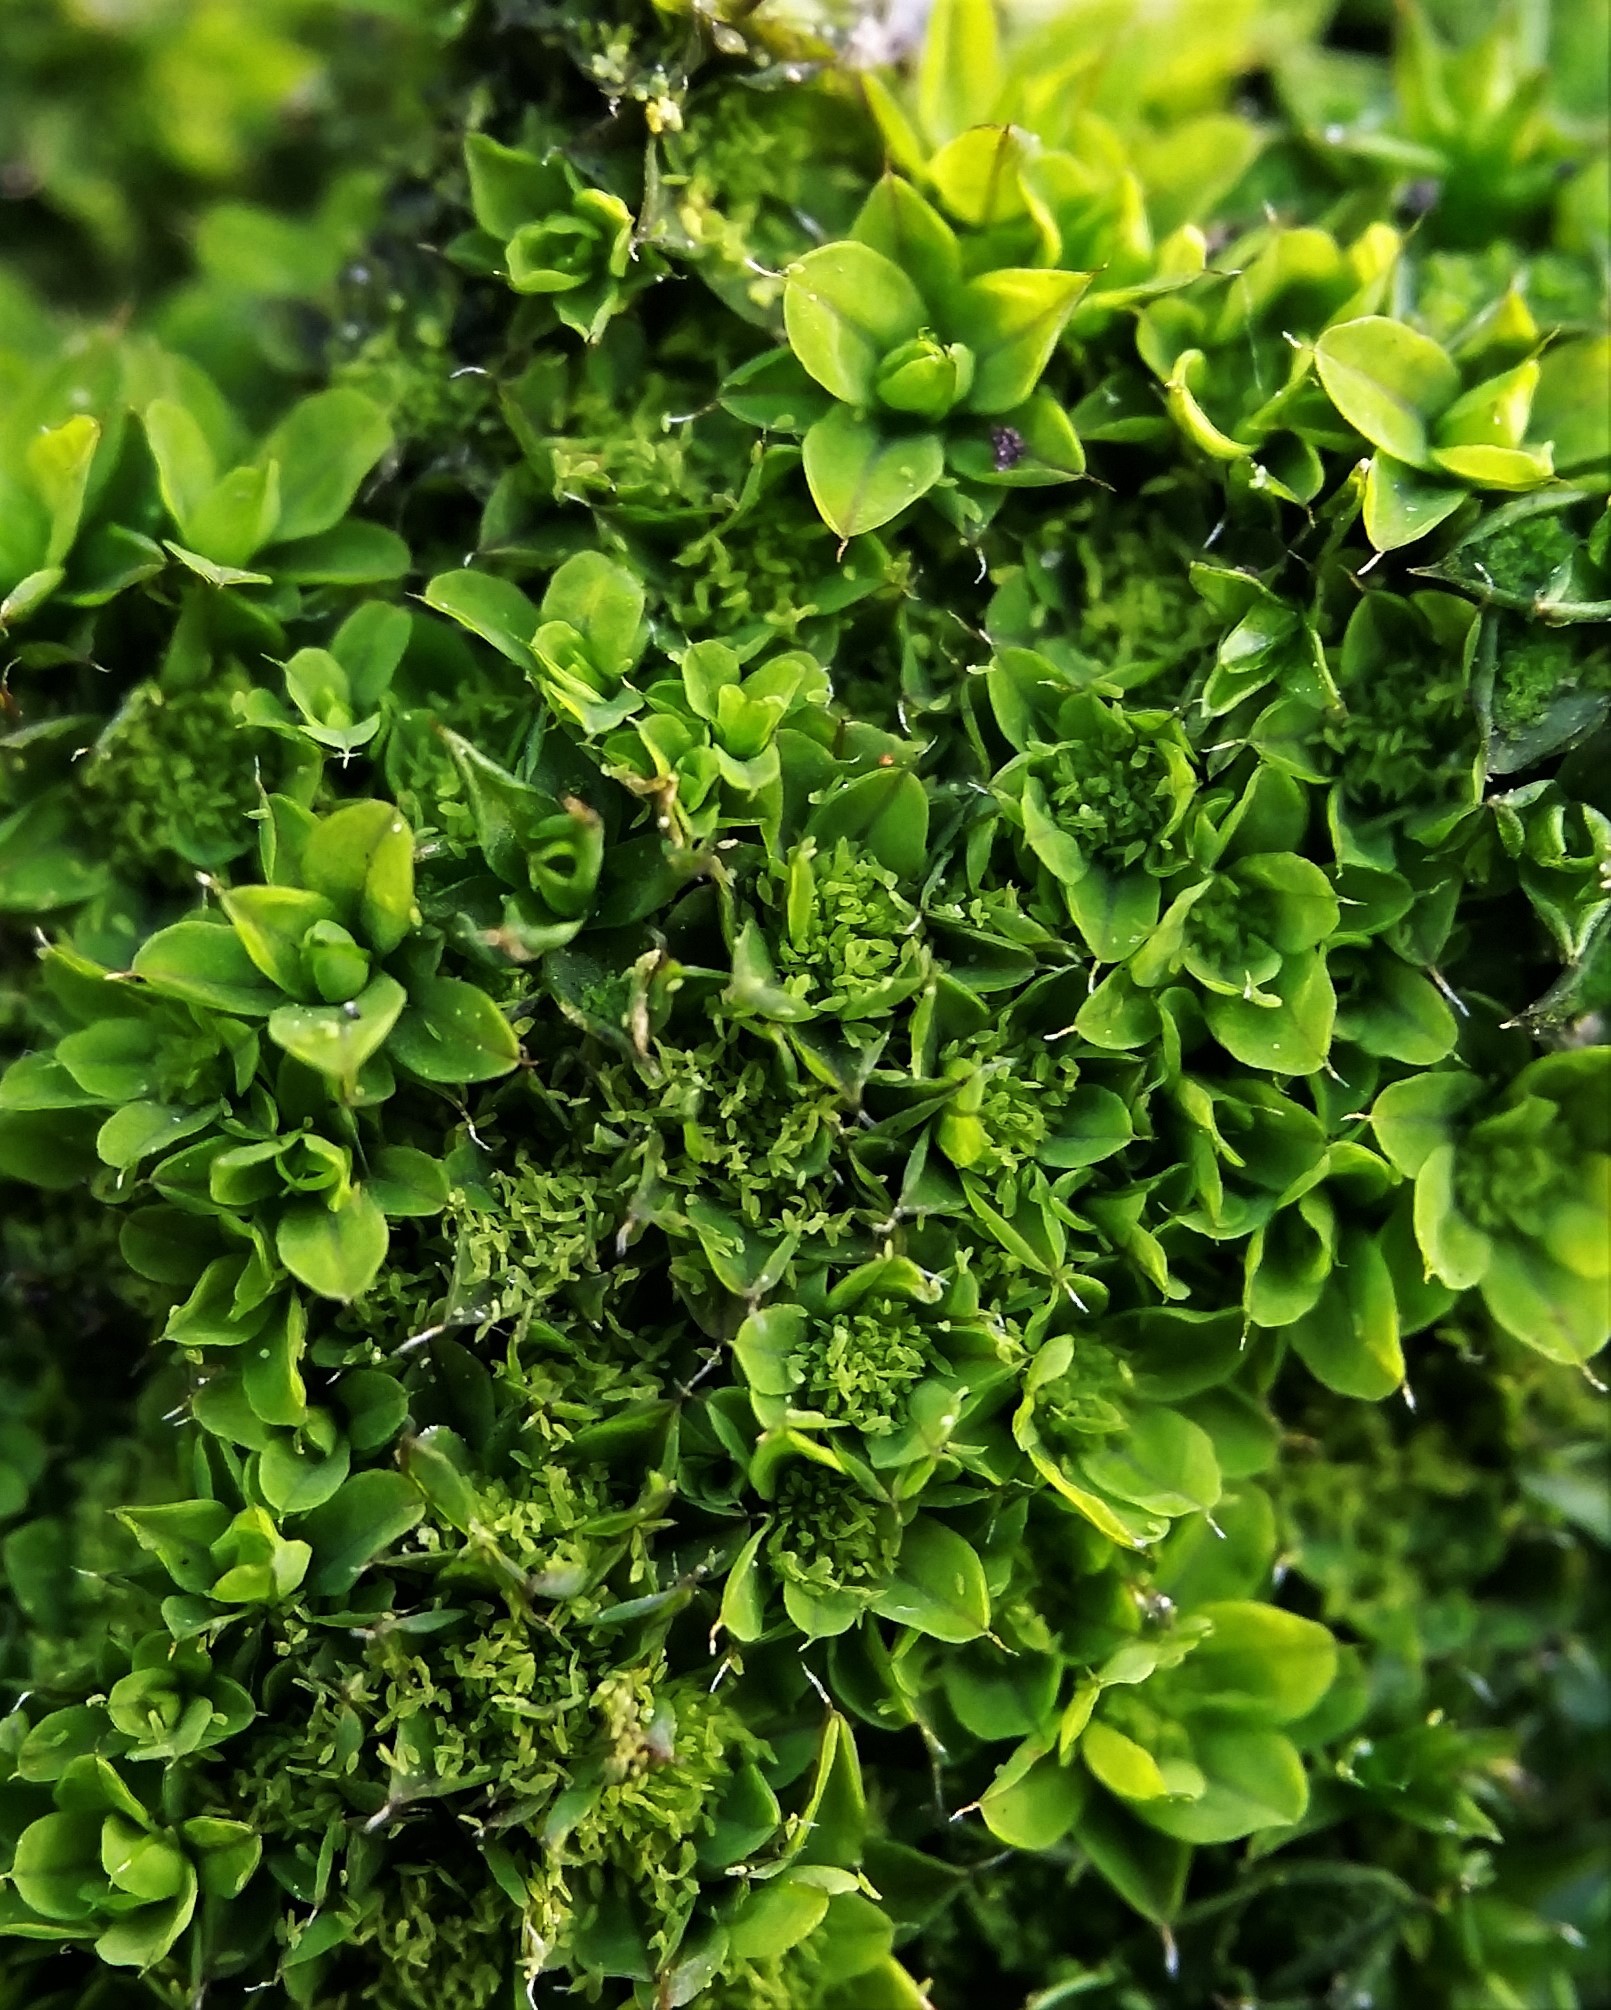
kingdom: Plantae
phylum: Bryophyta
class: Bryopsida
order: Pottiales
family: Pottiaceae
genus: Syntrichia
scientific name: Syntrichia laevipila
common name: Small hairy screw-moss
